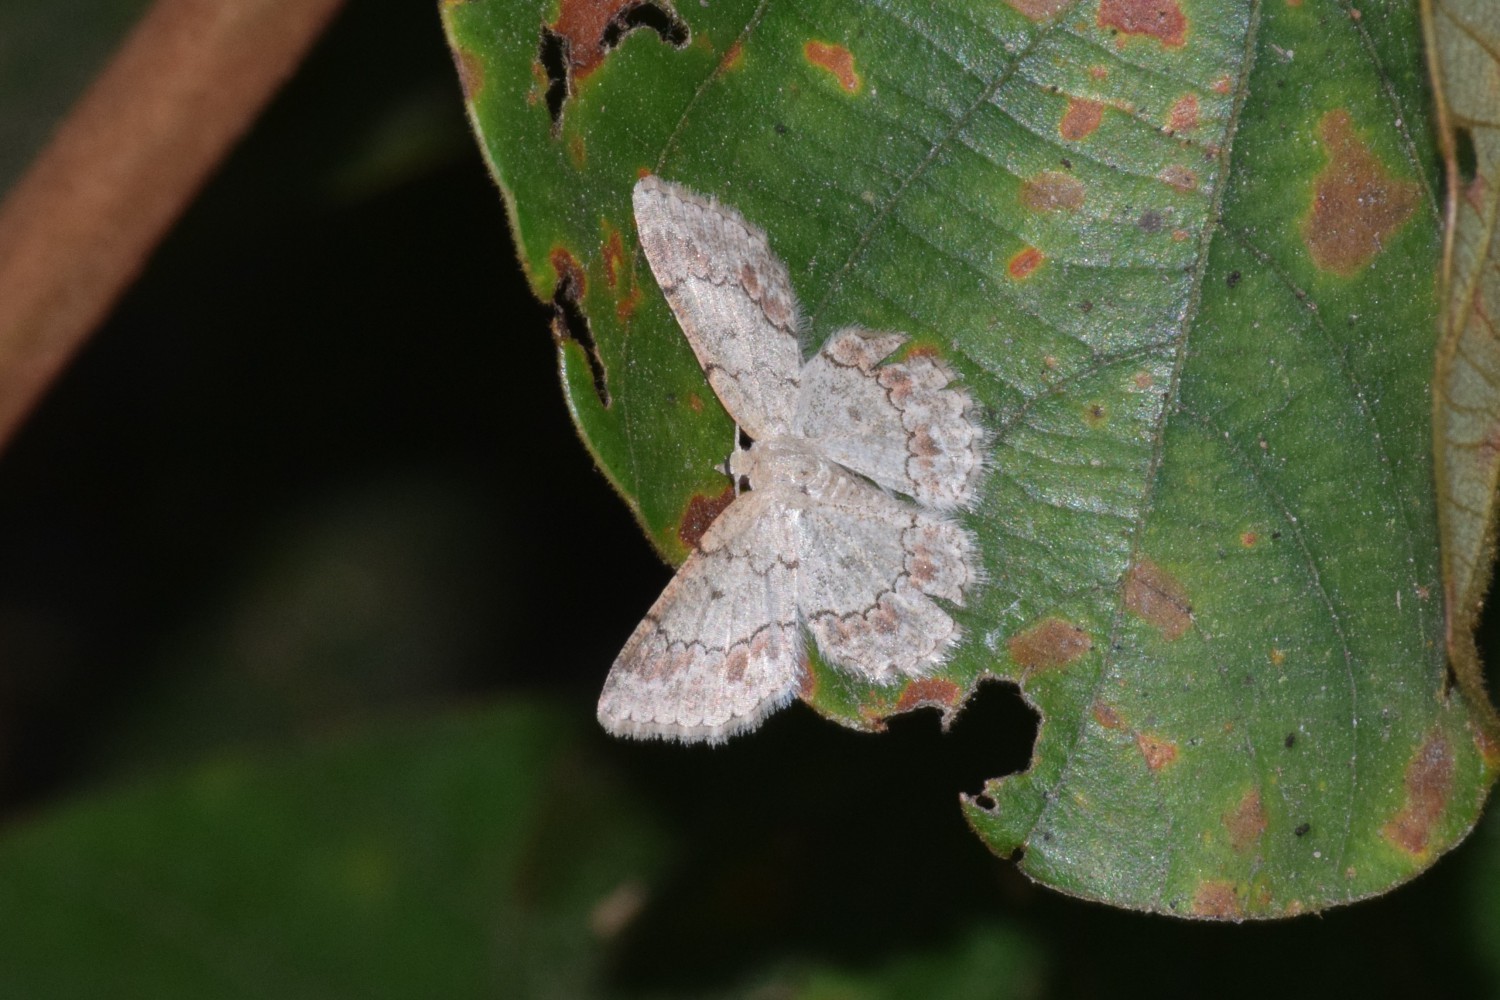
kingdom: Animalia
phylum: Arthropoda
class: Insecta
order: Lepidoptera
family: Geometridae
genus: Epipristis
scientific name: Epipristis minimaria
